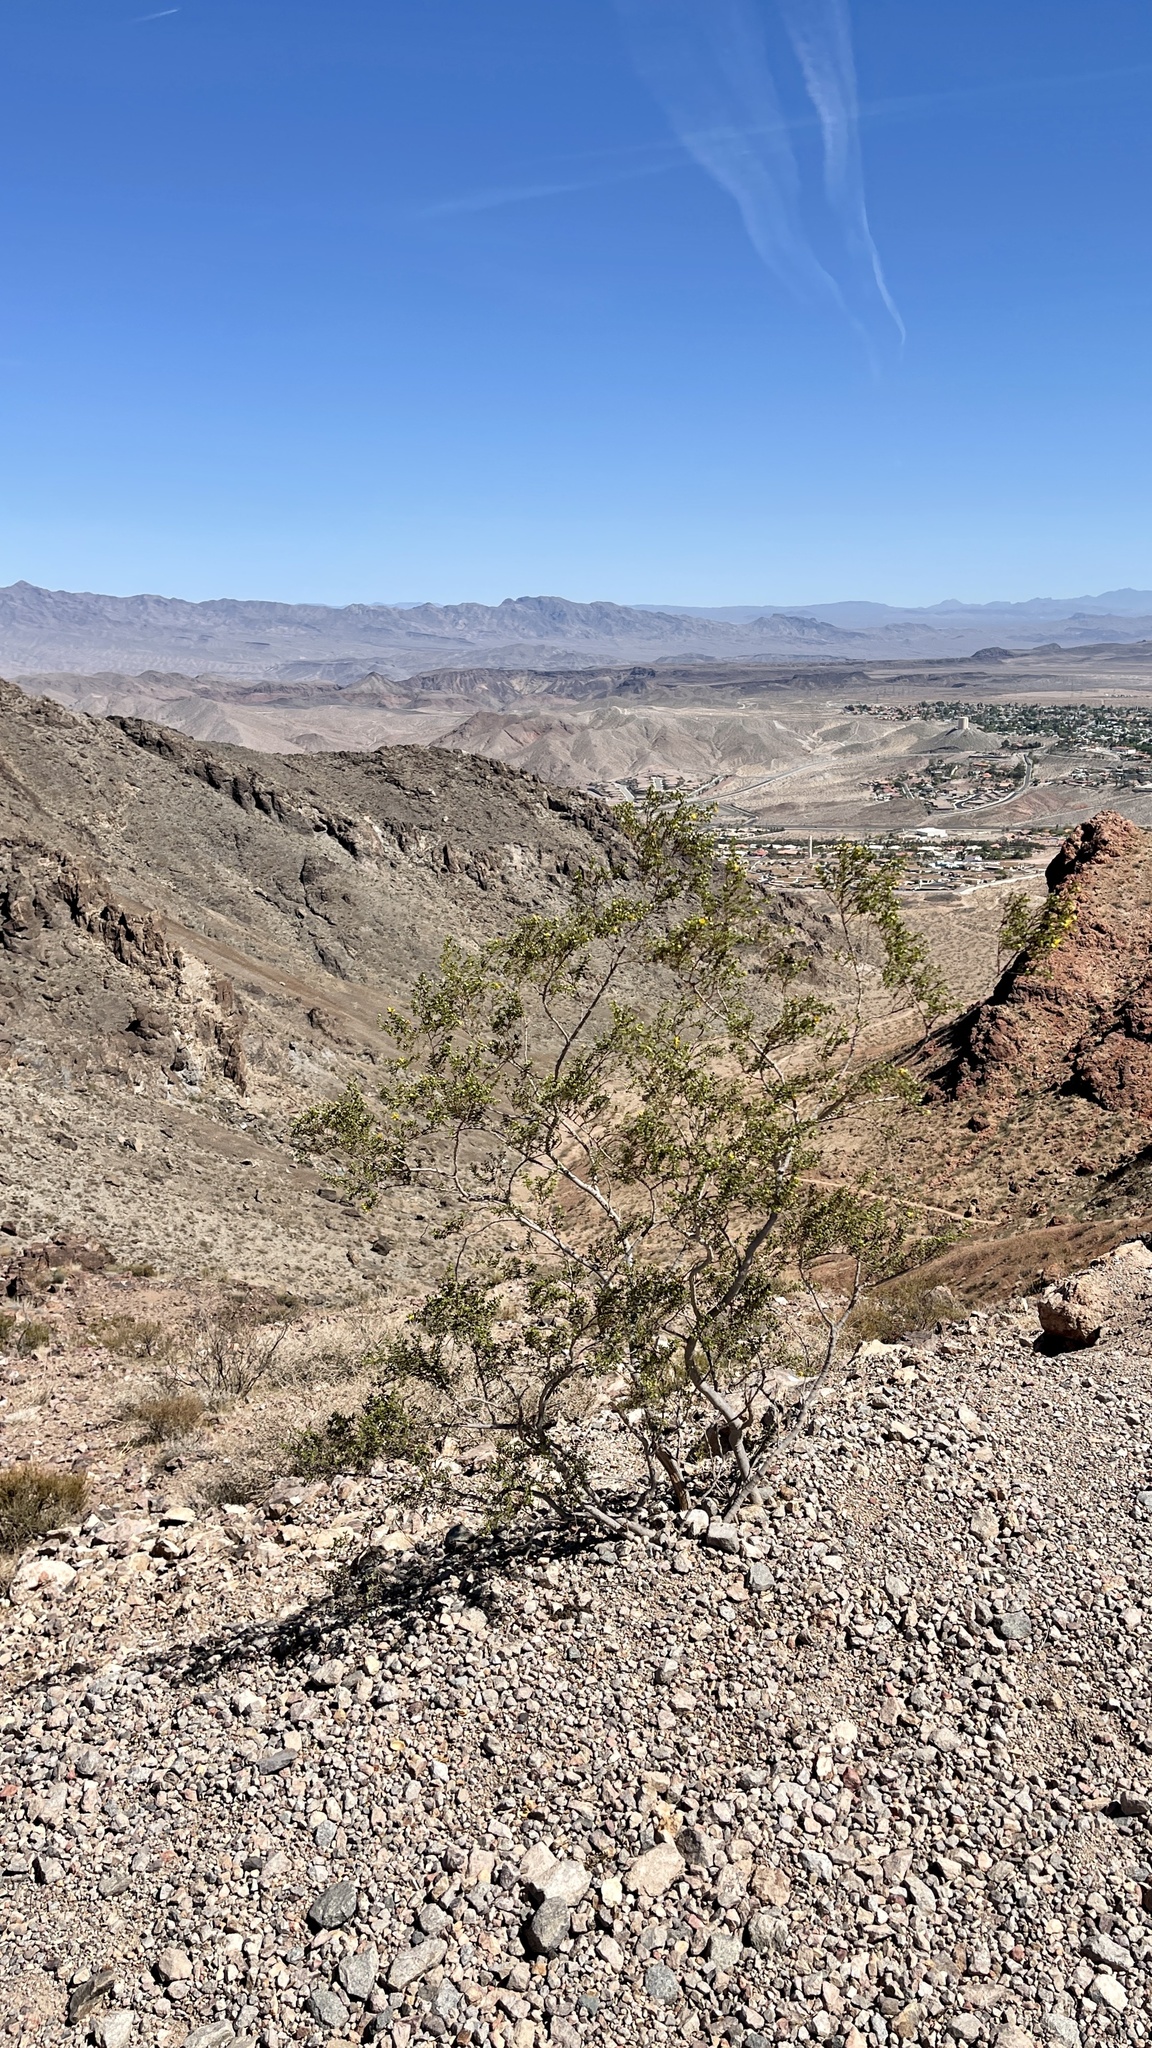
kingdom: Plantae
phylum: Tracheophyta
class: Magnoliopsida
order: Zygophyllales
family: Zygophyllaceae
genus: Larrea
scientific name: Larrea tridentata
